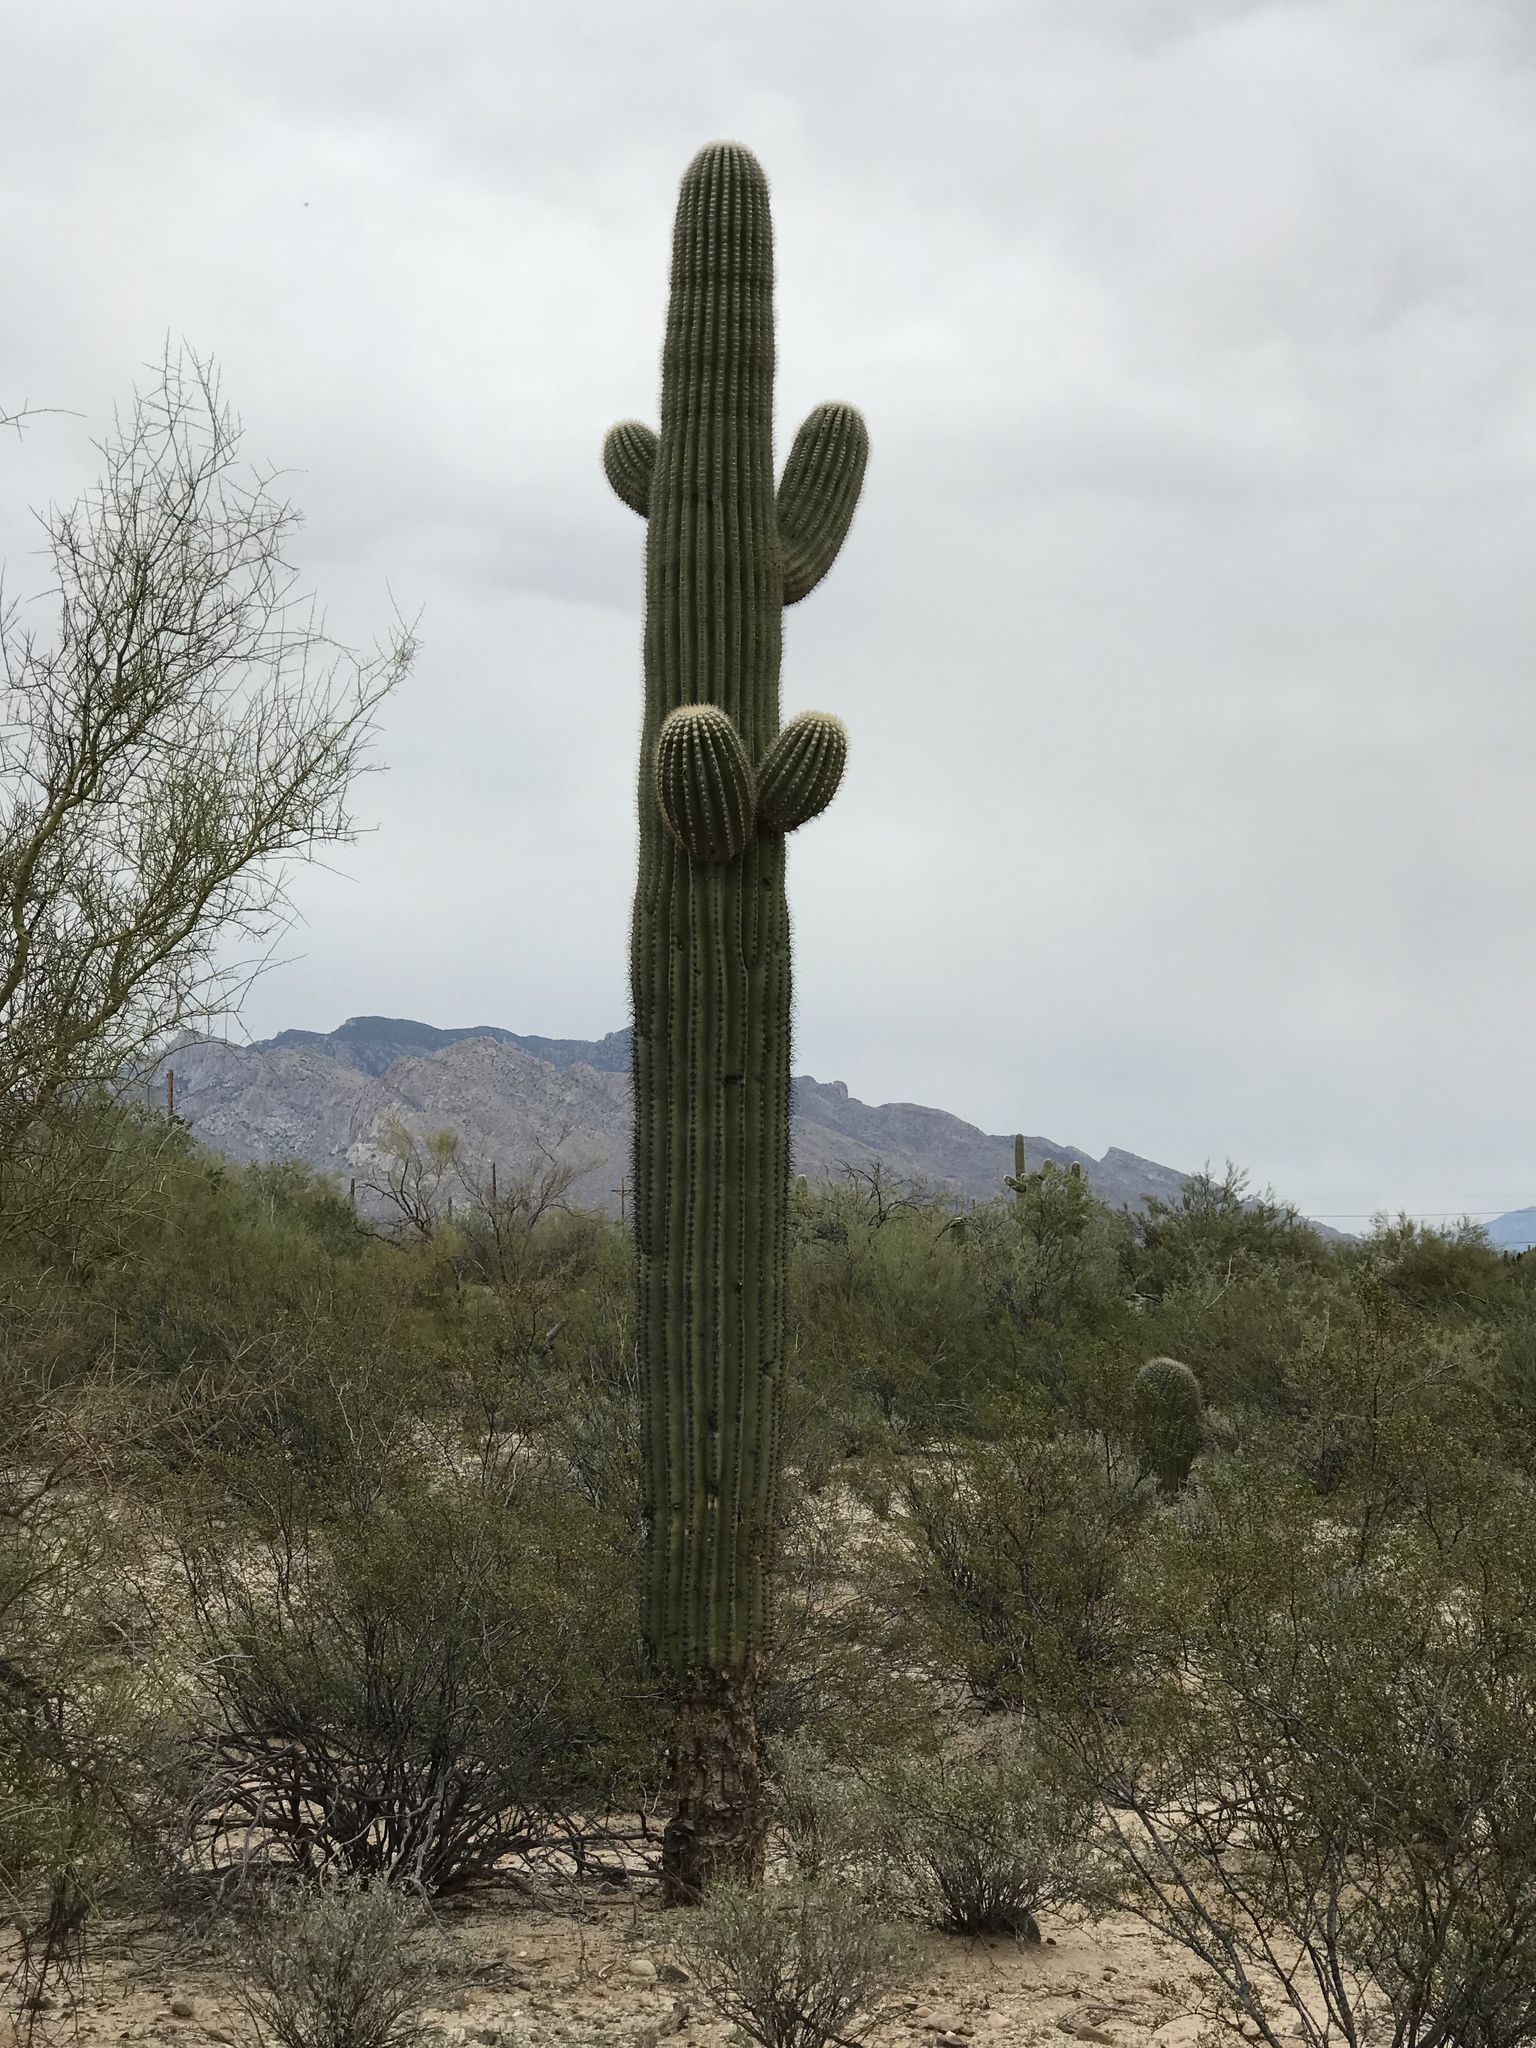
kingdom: Plantae
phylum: Tracheophyta
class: Magnoliopsida
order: Caryophyllales
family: Cactaceae
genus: Carnegiea
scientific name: Carnegiea gigantea
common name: Saguaro
